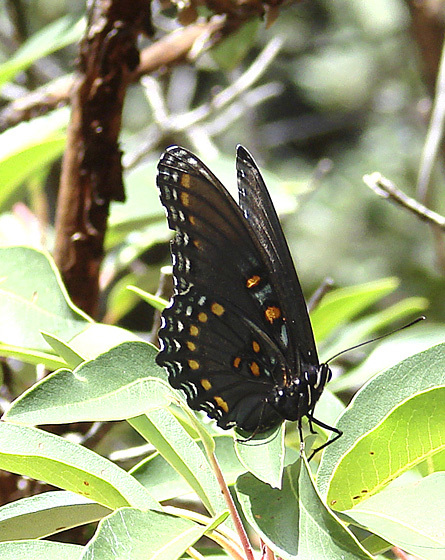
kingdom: Animalia
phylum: Arthropoda
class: Insecta
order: Lepidoptera
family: Nymphalidae
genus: Limenitis
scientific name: Limenitis arthemis
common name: Red-spotted admiral
